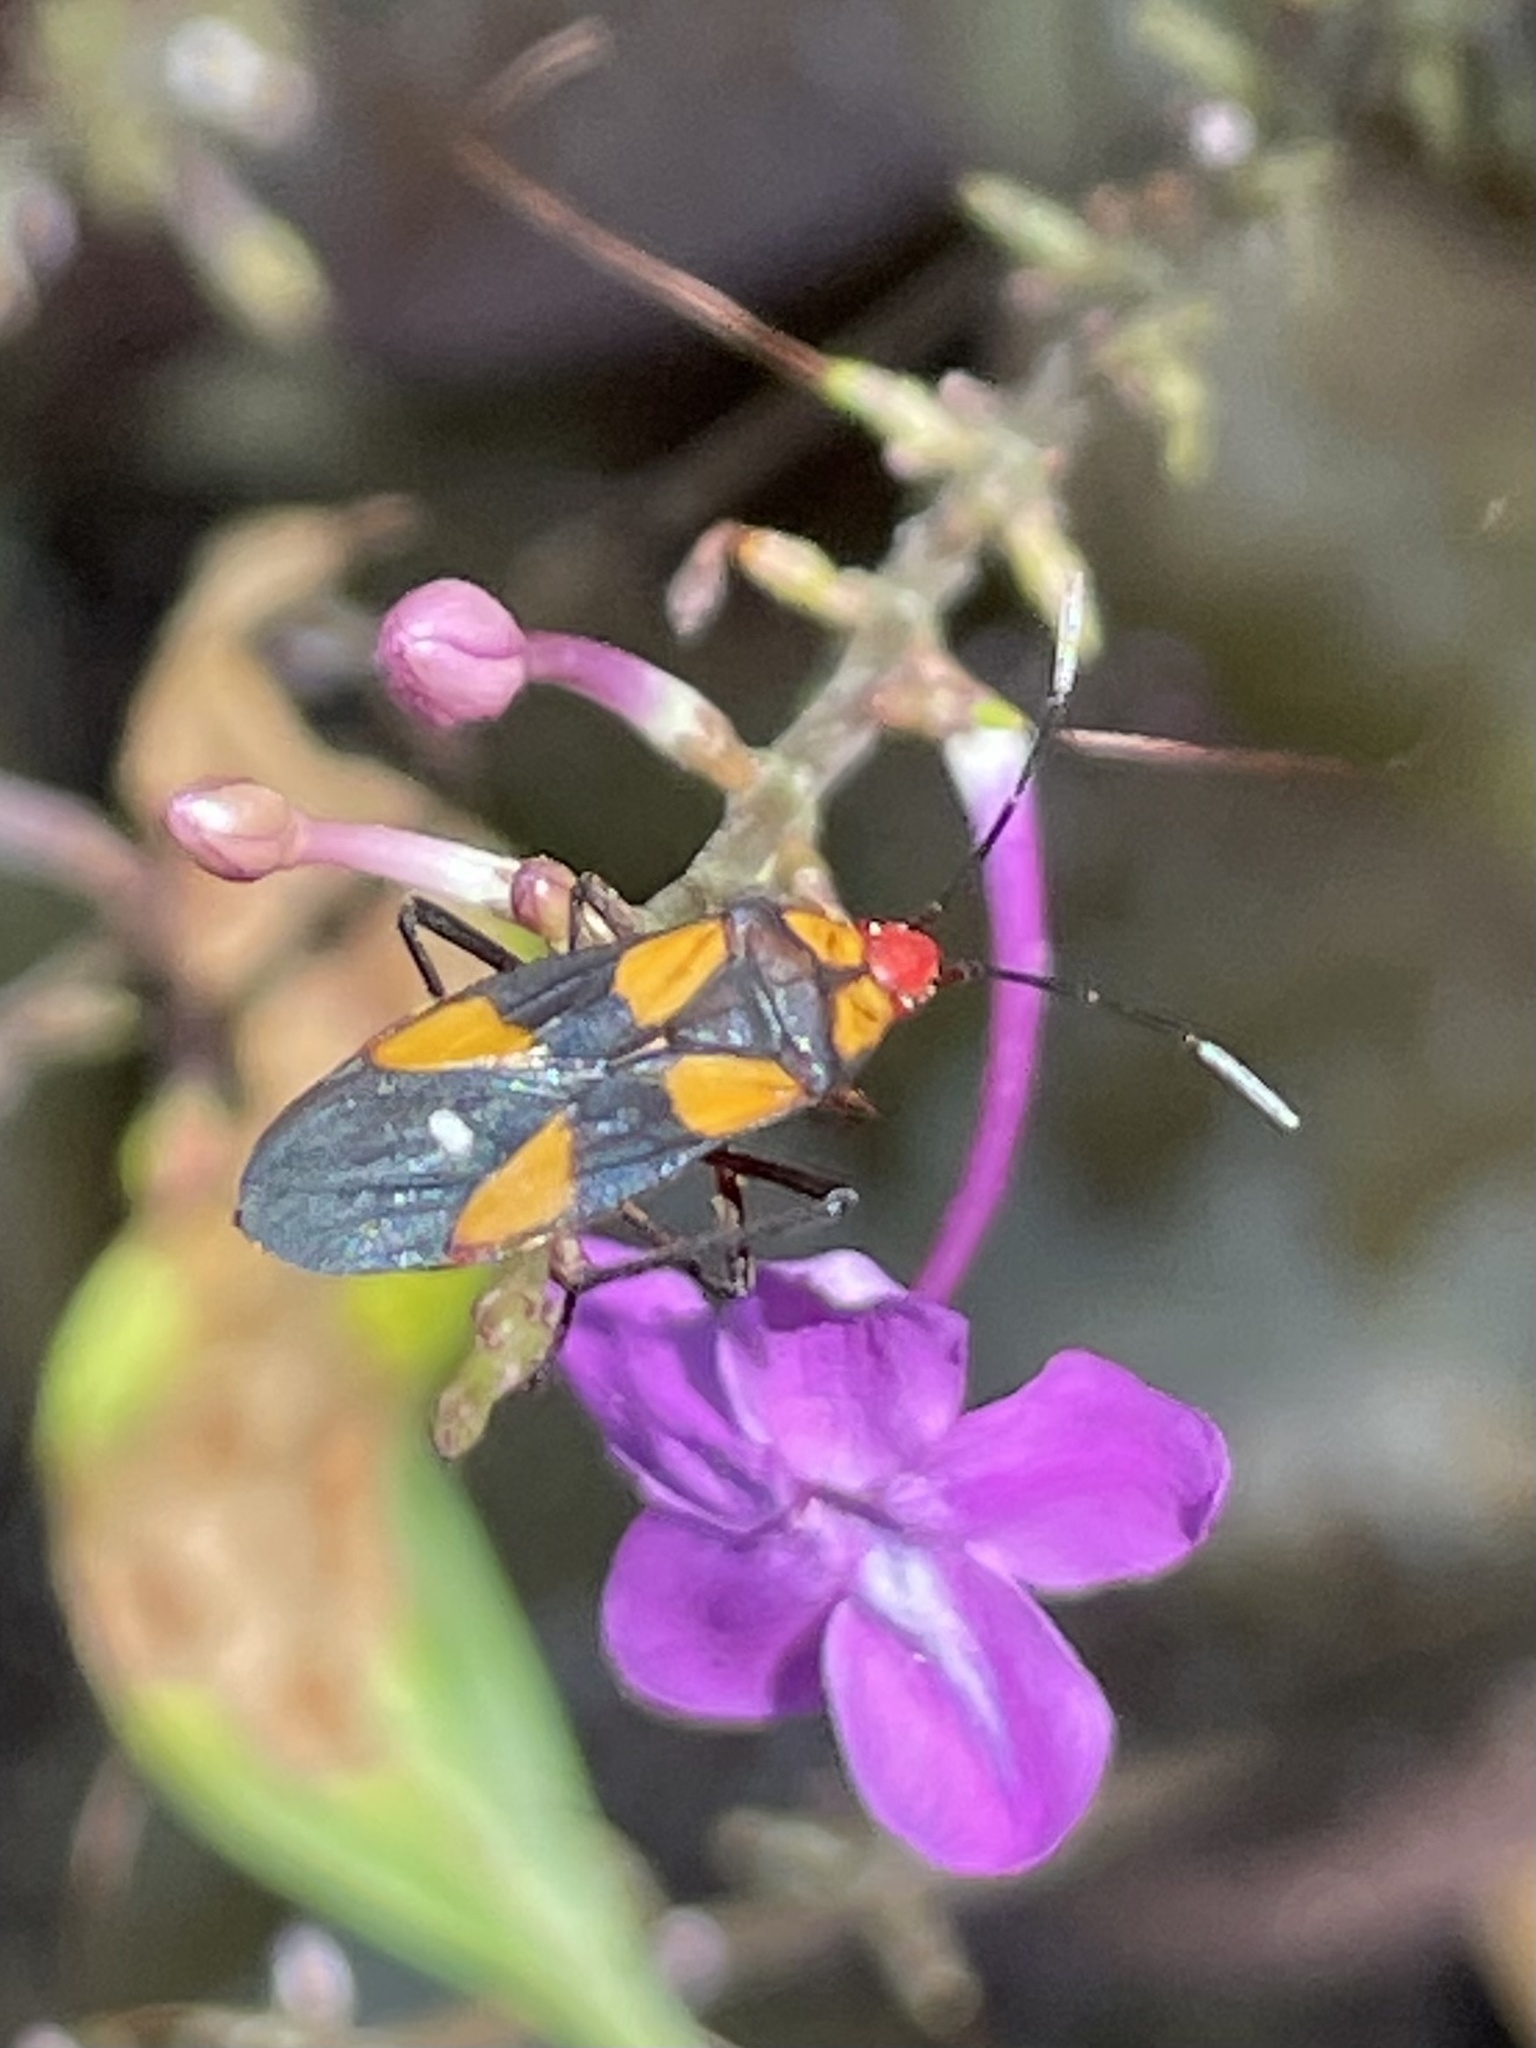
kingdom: Animalia
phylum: Arthropoda
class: Insecta
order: Hemiptera
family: Lygaeidae
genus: Oncopeltus
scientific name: Oncopeltus sexmaculatus
